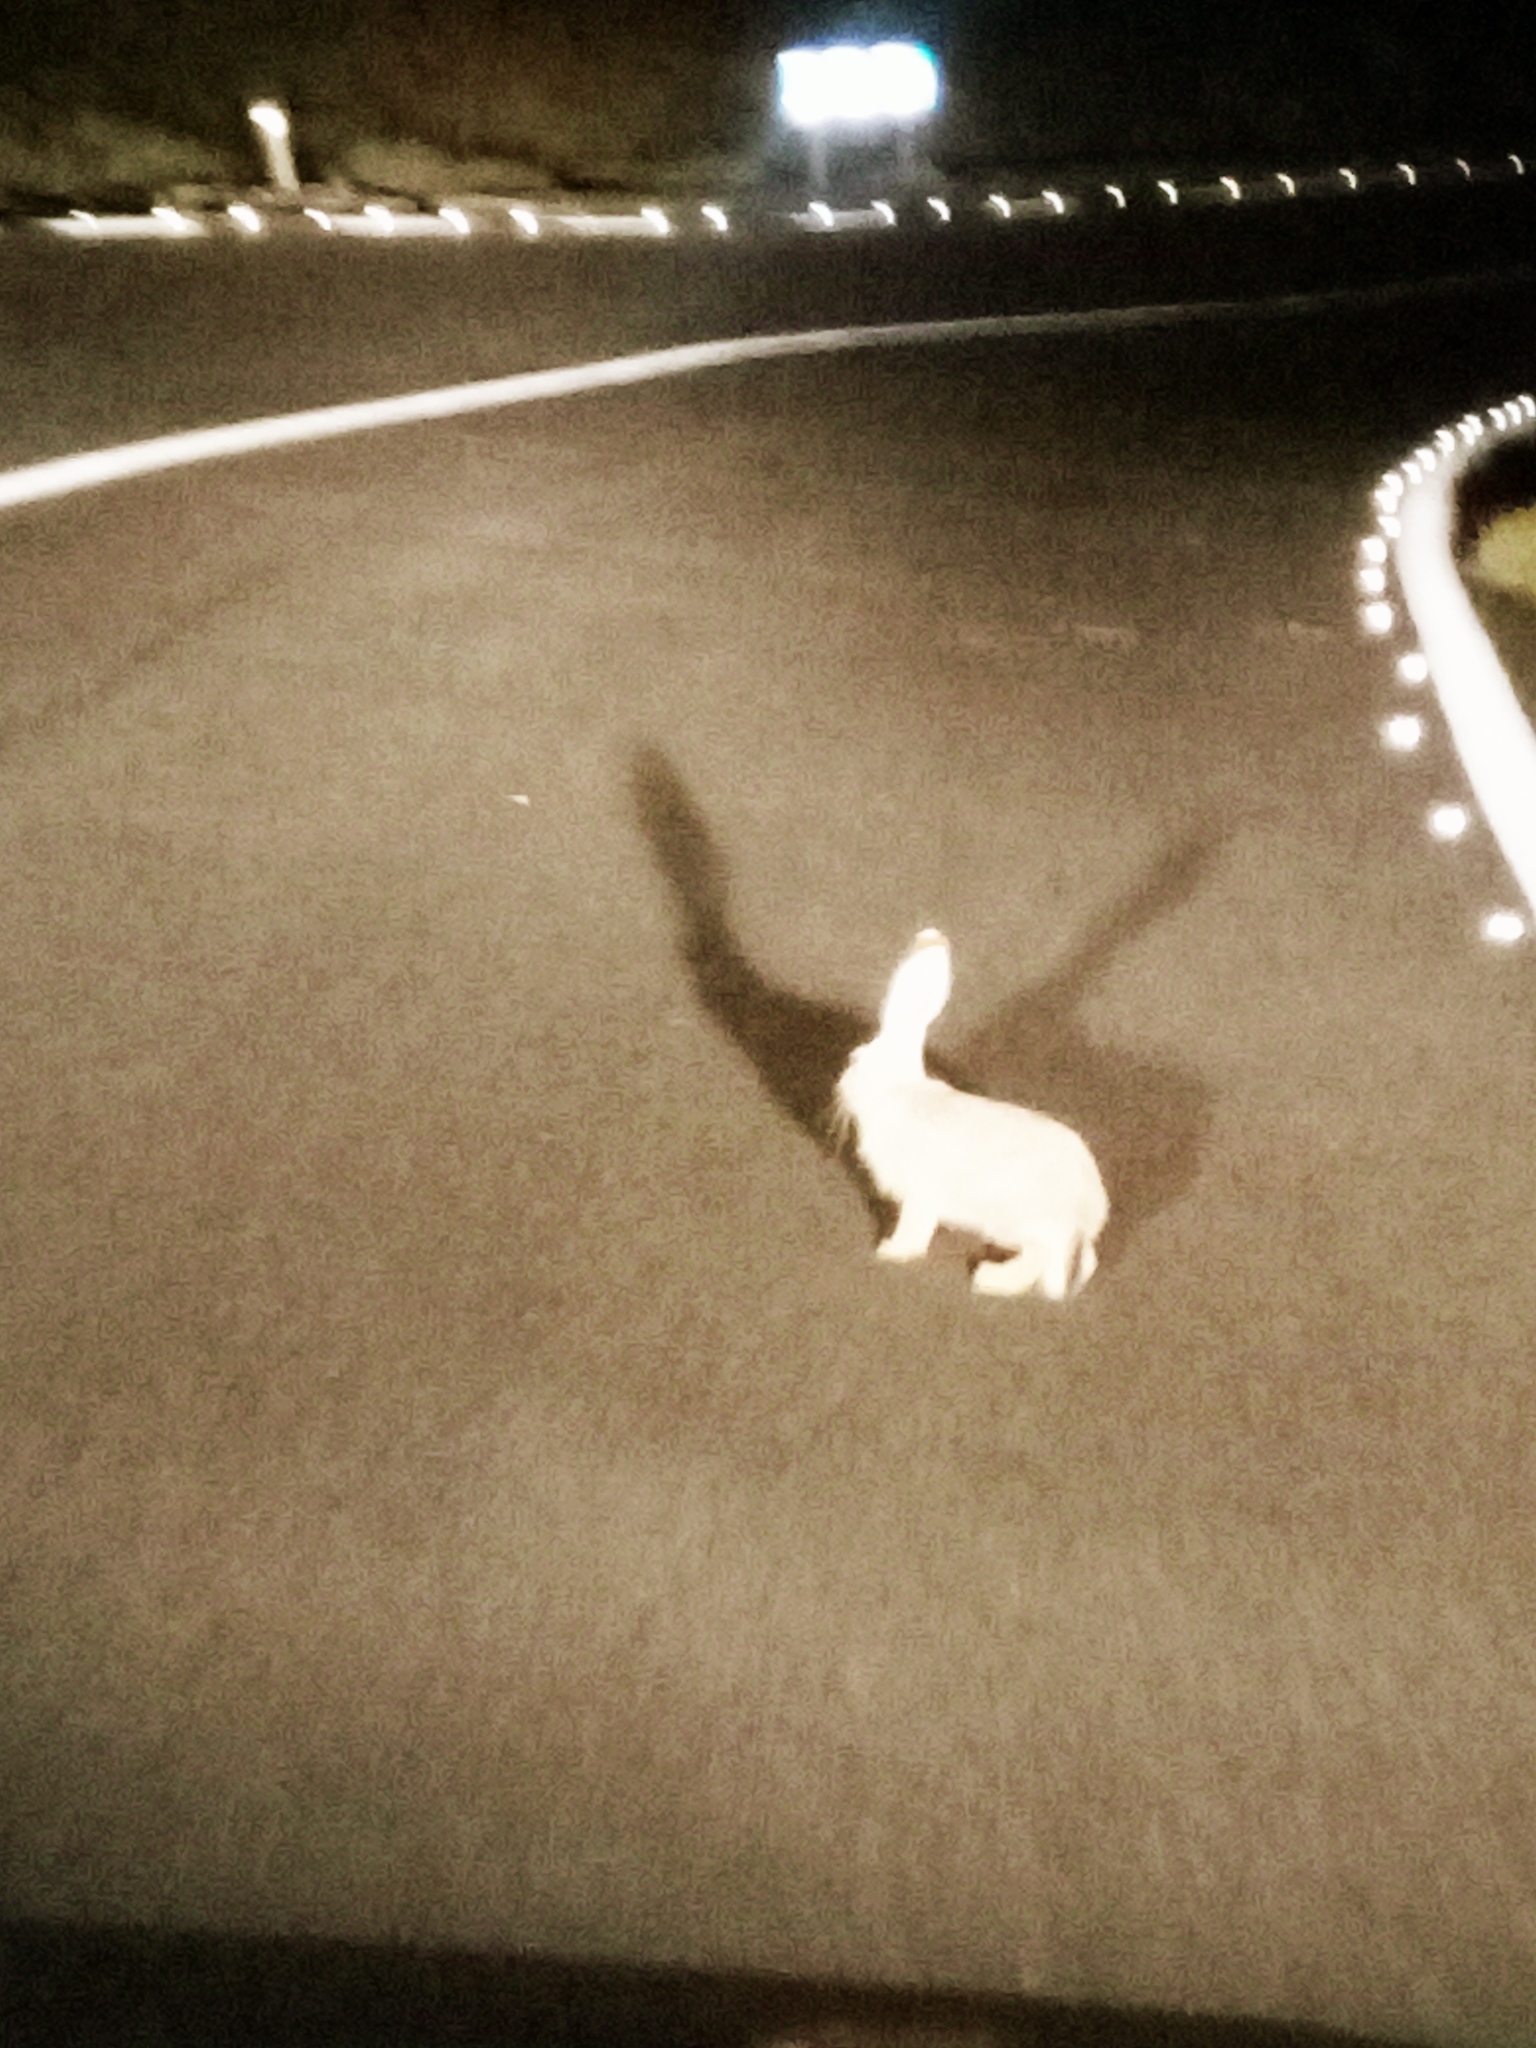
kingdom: Animalia
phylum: Chordata
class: Mammalia
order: Lagomorpha
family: Leporidae
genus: Lepus
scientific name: Lepus capensis
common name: Cape hare
